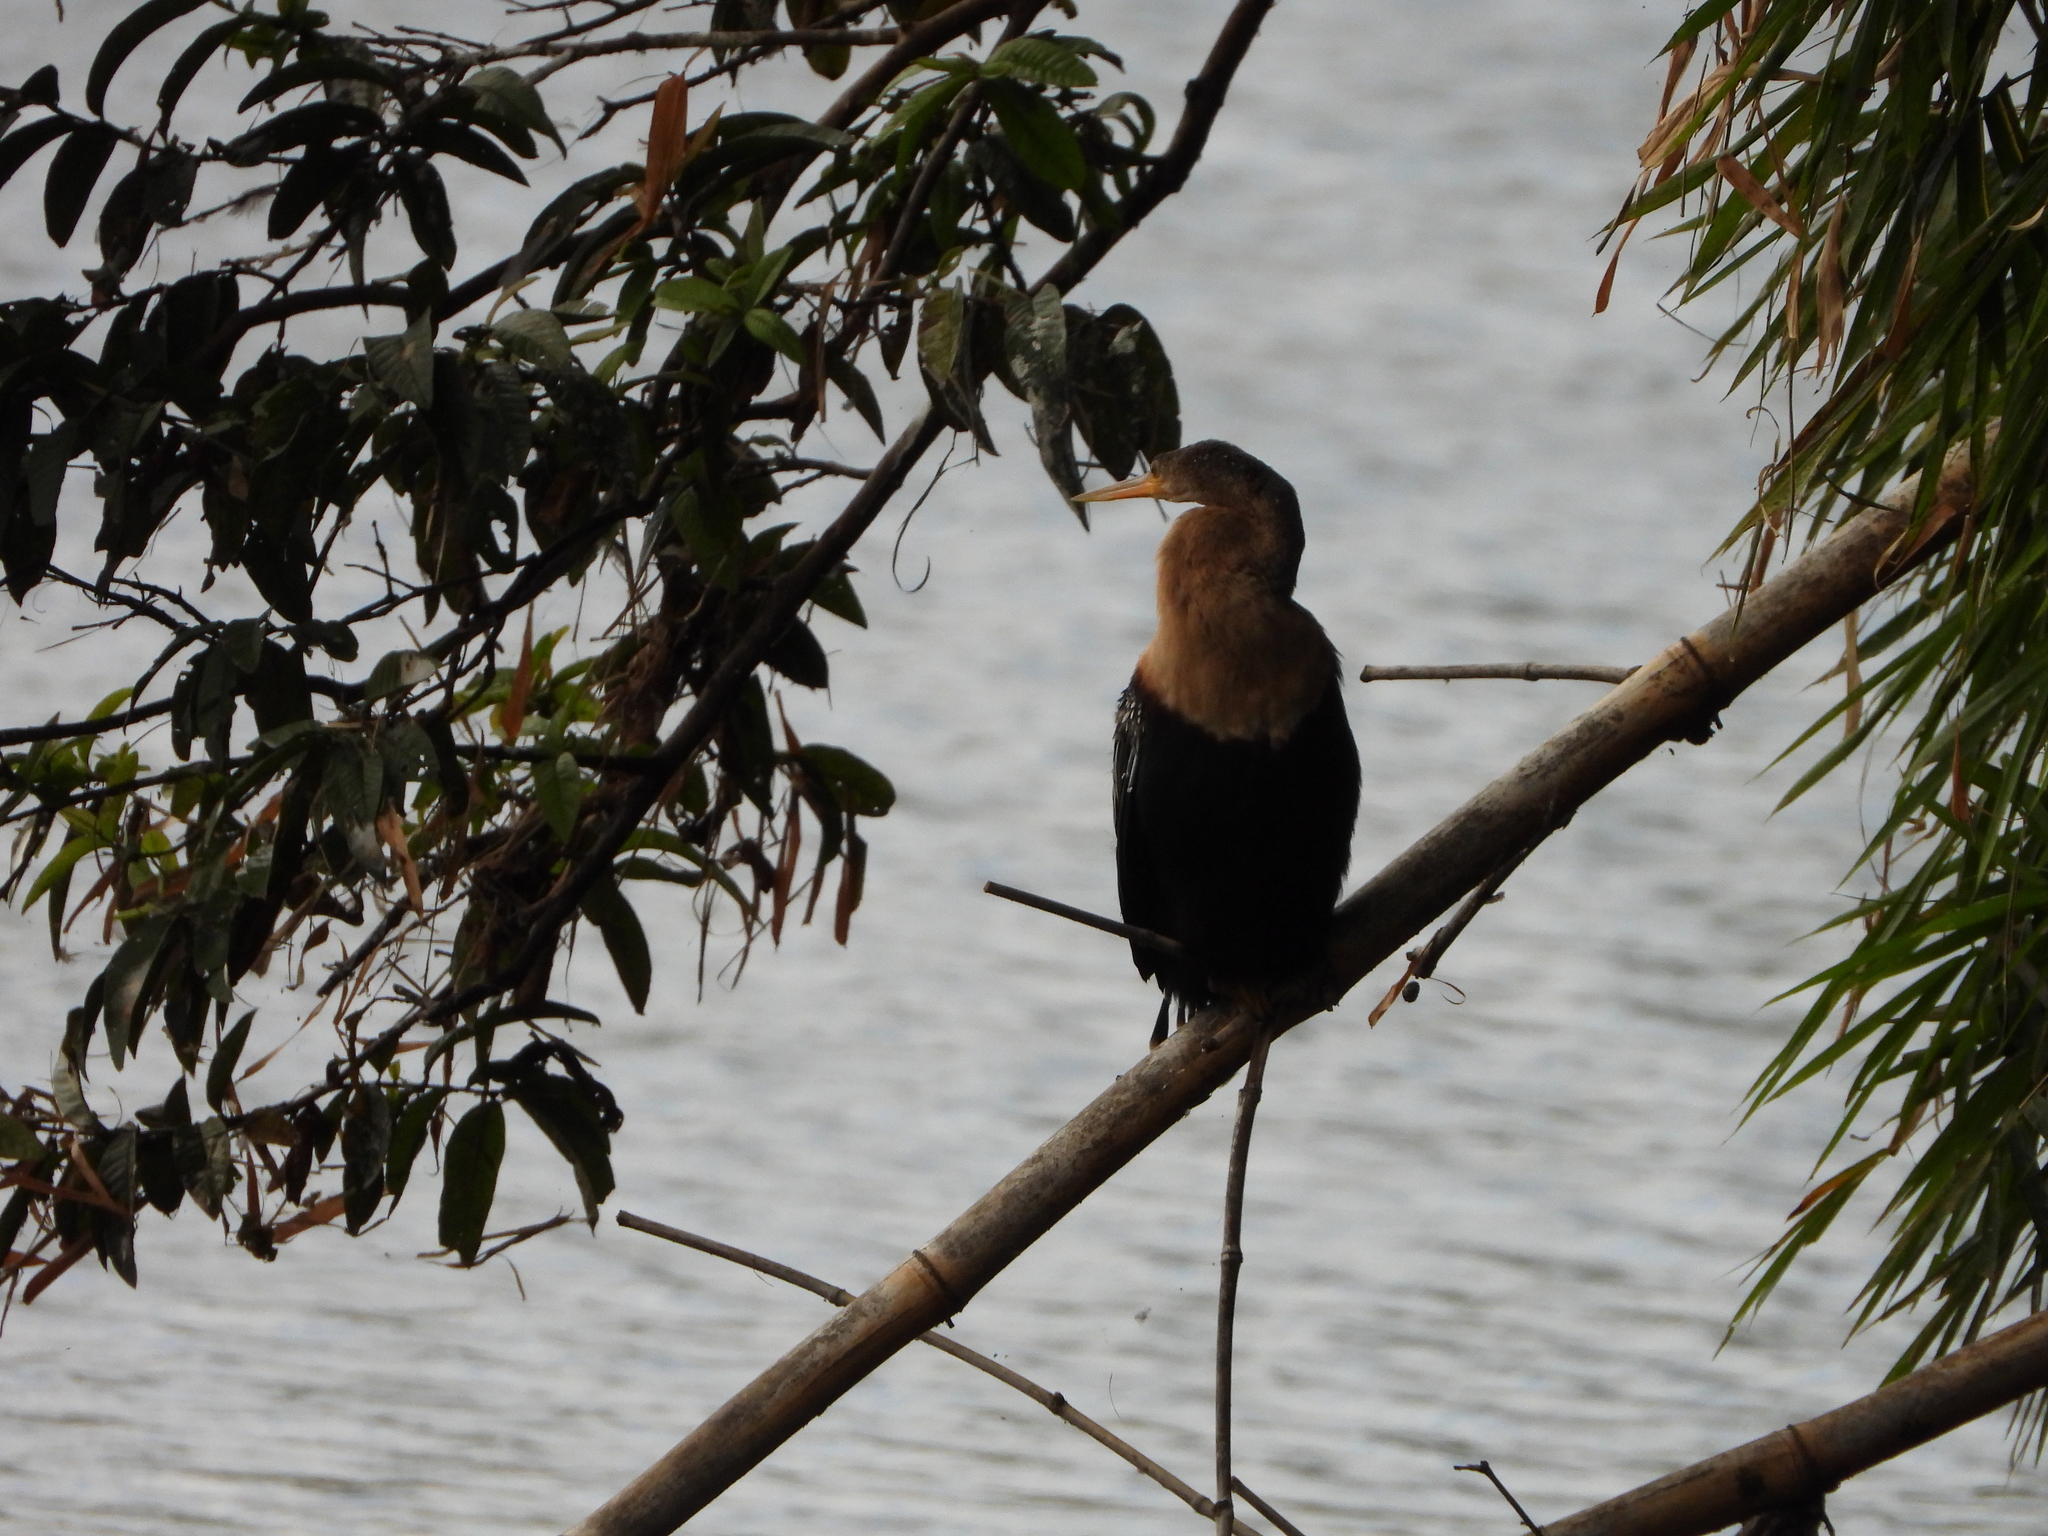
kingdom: Animalia
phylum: Chordata
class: Aves
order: Suliformes
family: Anhingidae
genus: Anhinga
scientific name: Anhinga anhinga
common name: Anhinga
